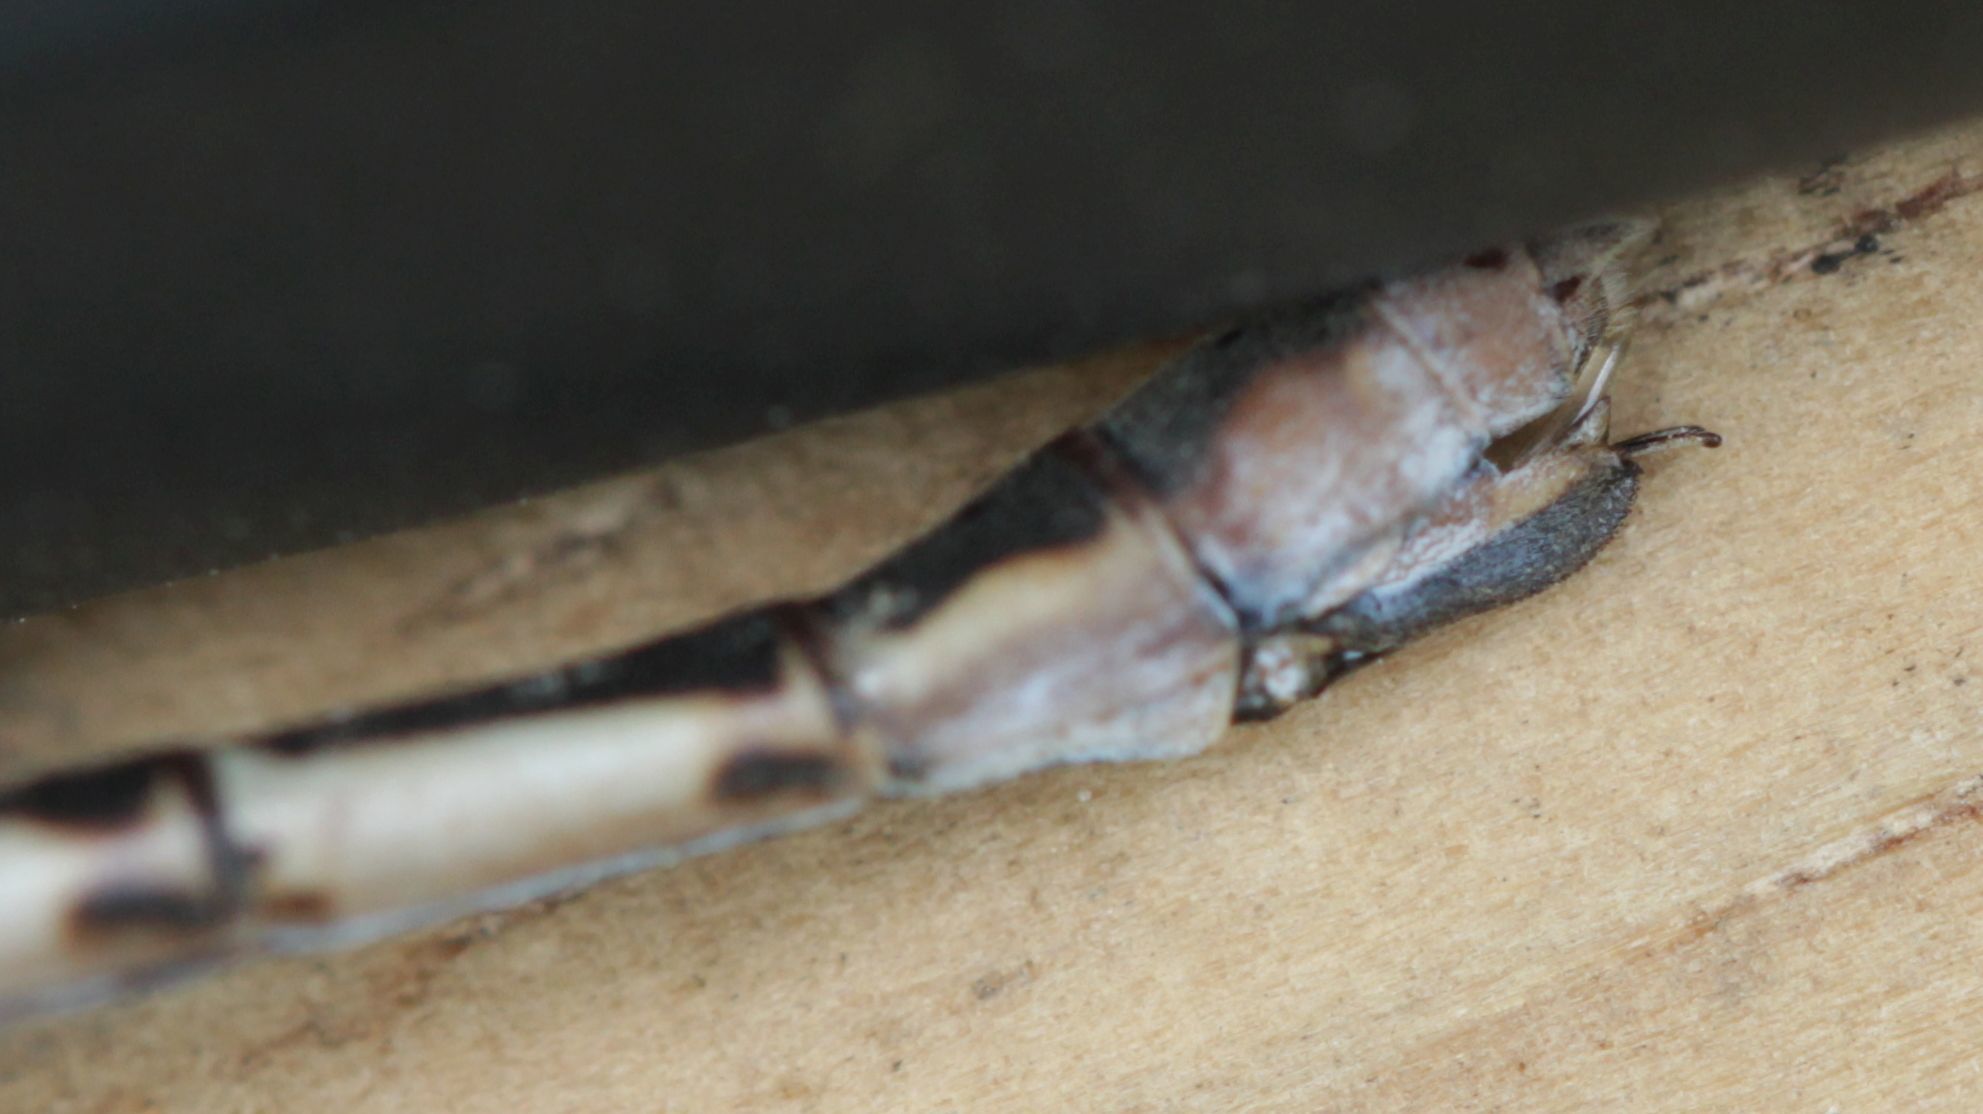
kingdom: Animalia
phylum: Arthropoda
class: Insecta
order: Odonata
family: Lestidae
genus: Lestes
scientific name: Lestes australis
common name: Southern spreadwing
